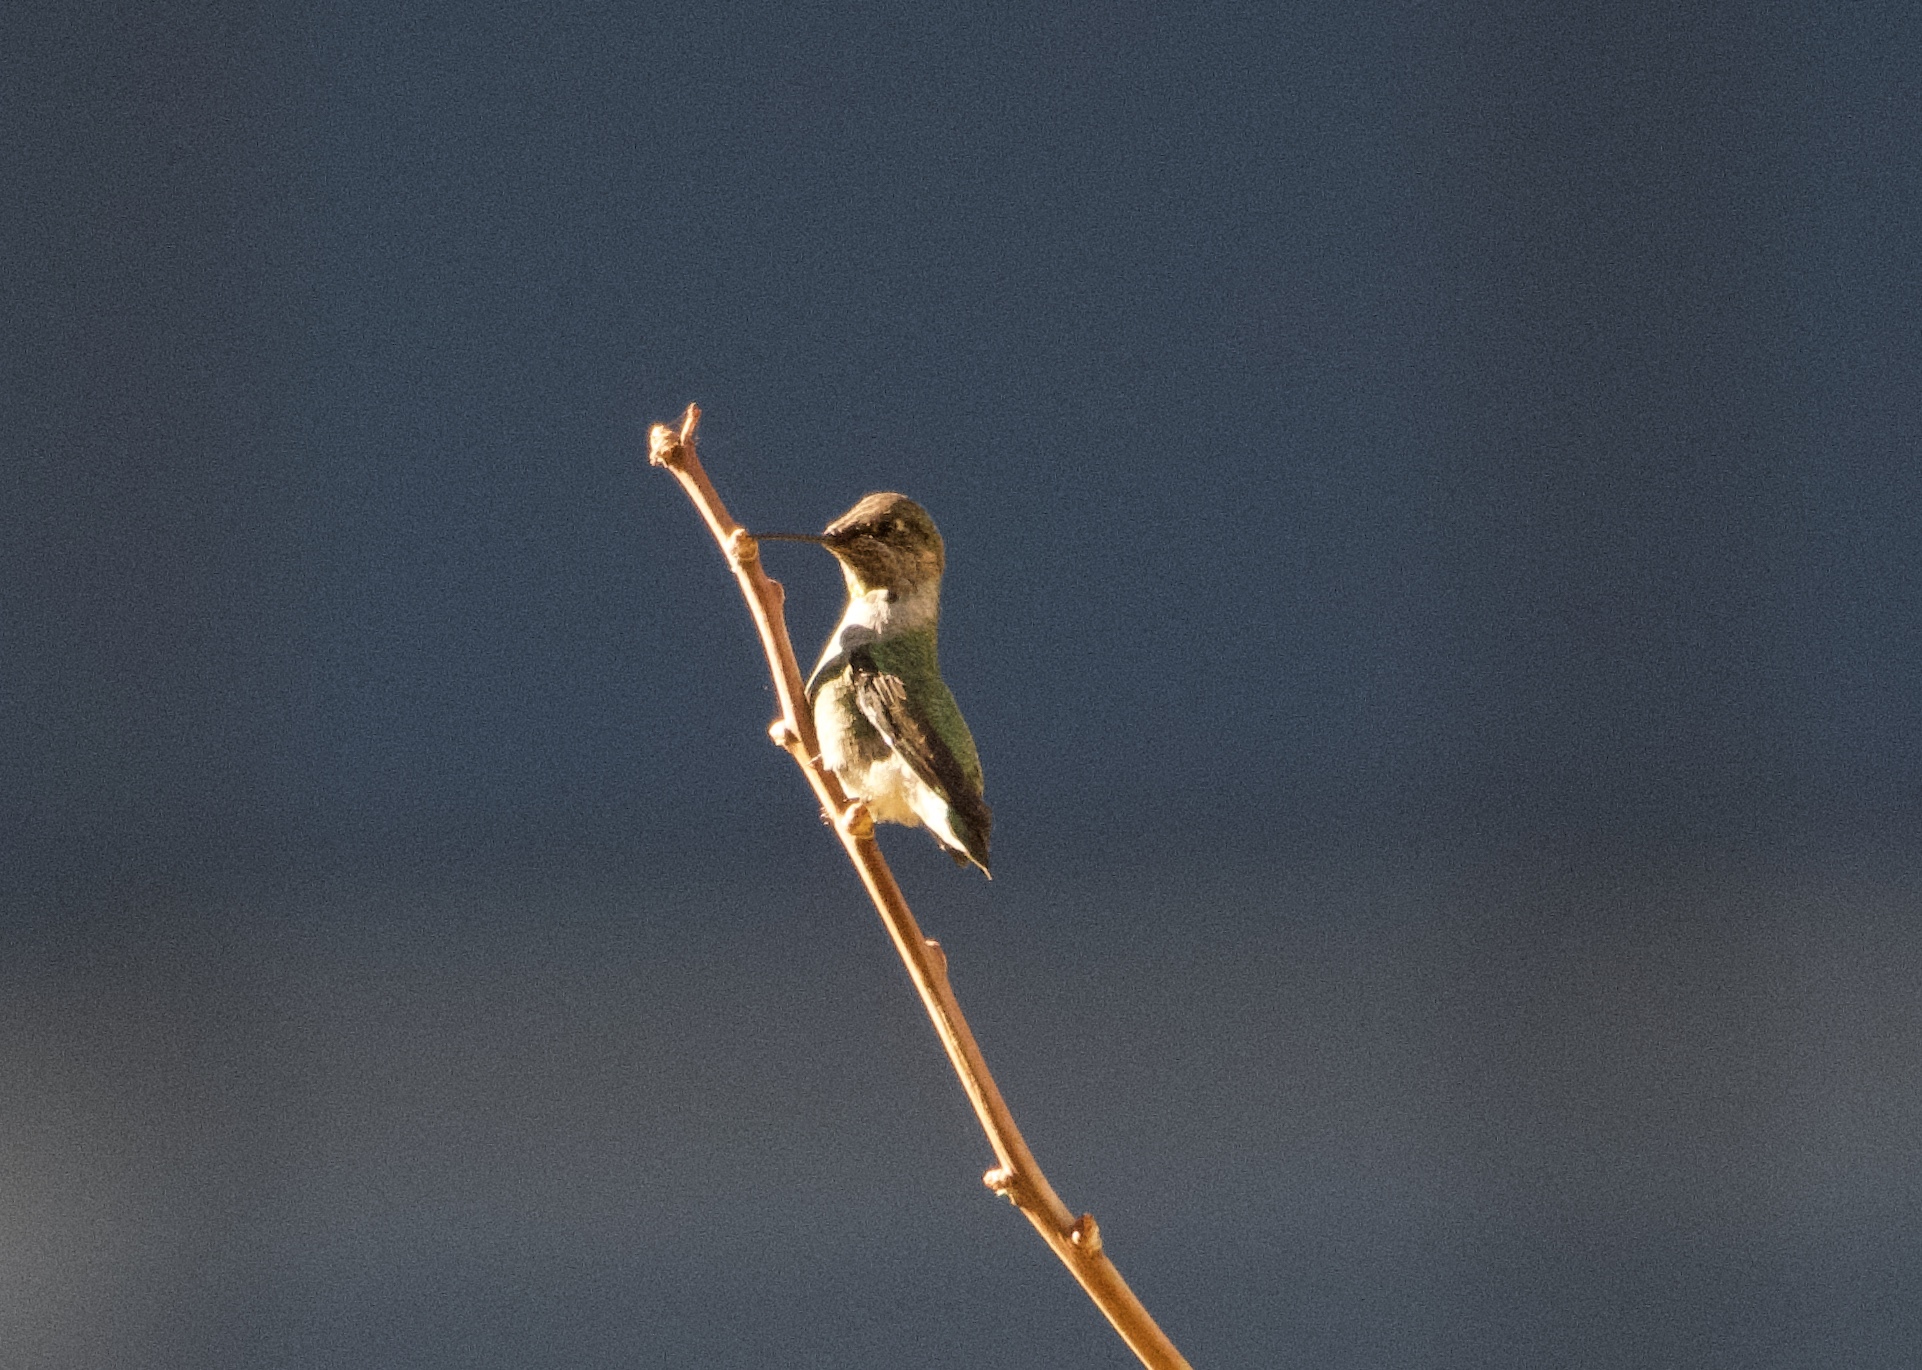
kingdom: Animalia
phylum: Chordata
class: Aves
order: Apodiformes
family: Trochilidae
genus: Calypte
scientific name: Calypte anna
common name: Anna's hummingbird
